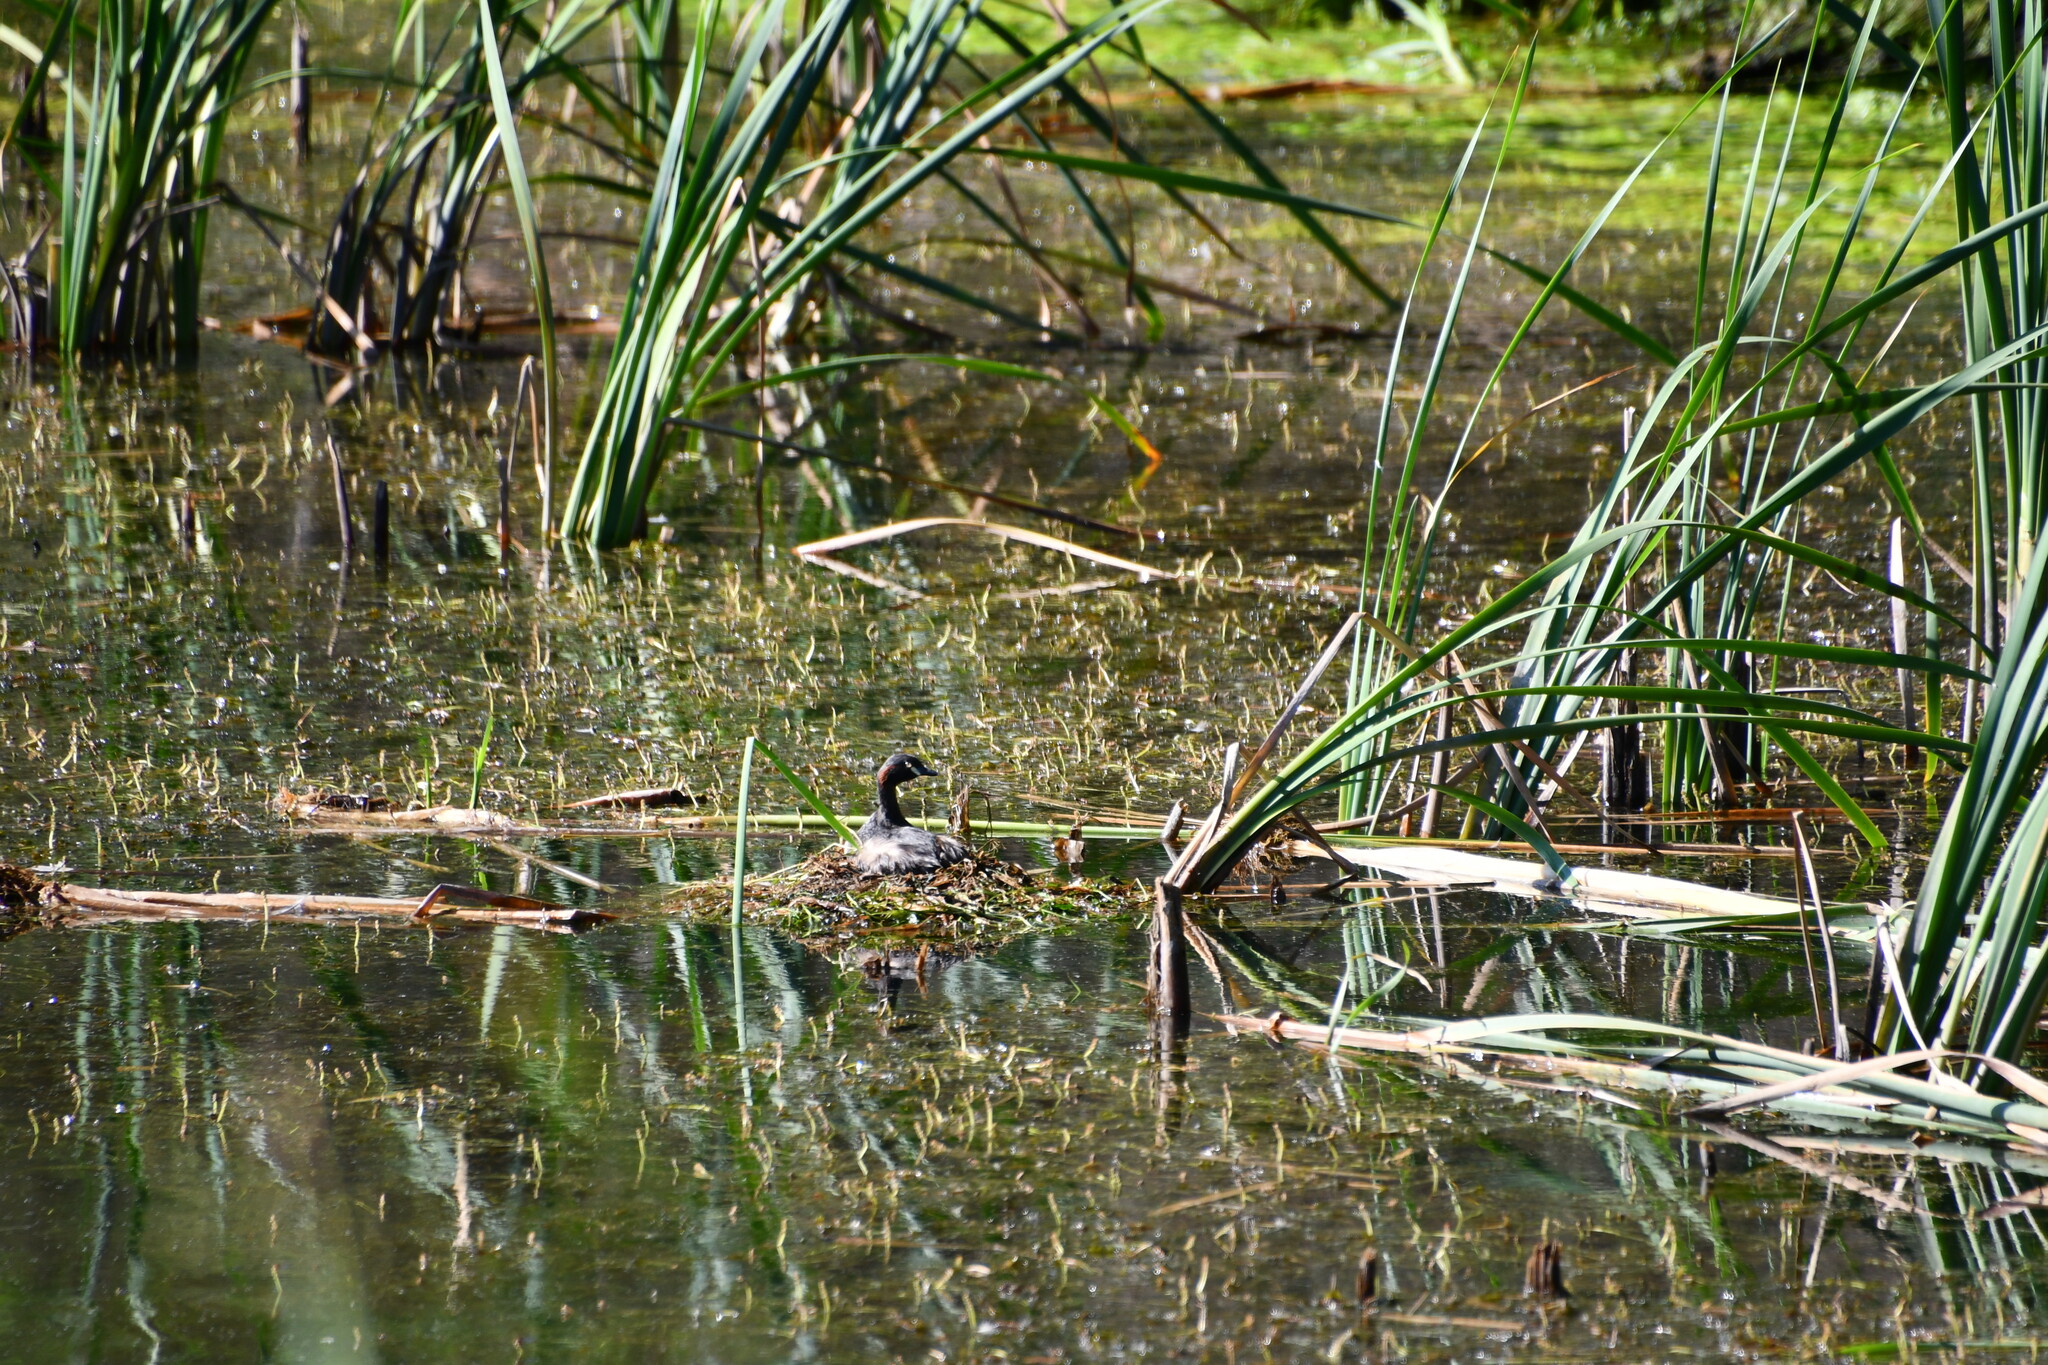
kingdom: Animalia
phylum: Chordata
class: Aves
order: Podicipediformes
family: Podicipedidae
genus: Tachybaptus
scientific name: Tachybaptus novaehollandiae
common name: Australasian grebe
